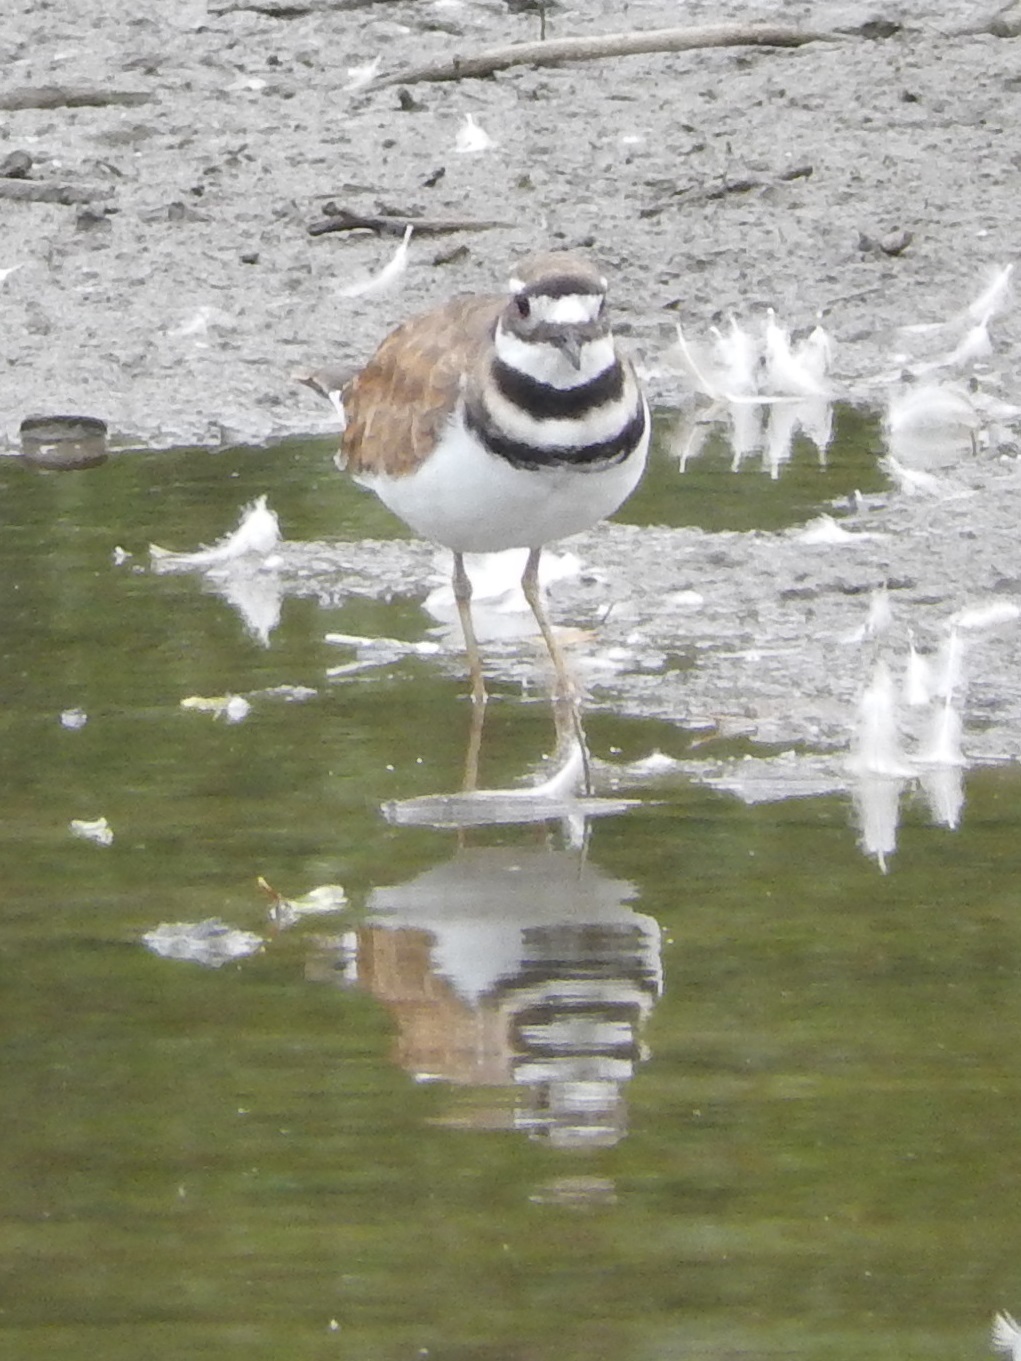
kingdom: Animalia
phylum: Chordata
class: Aves
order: Charadriiformes
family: Charadriidae
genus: Charadrius
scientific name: Charadrius vociferus
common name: Killdeer
